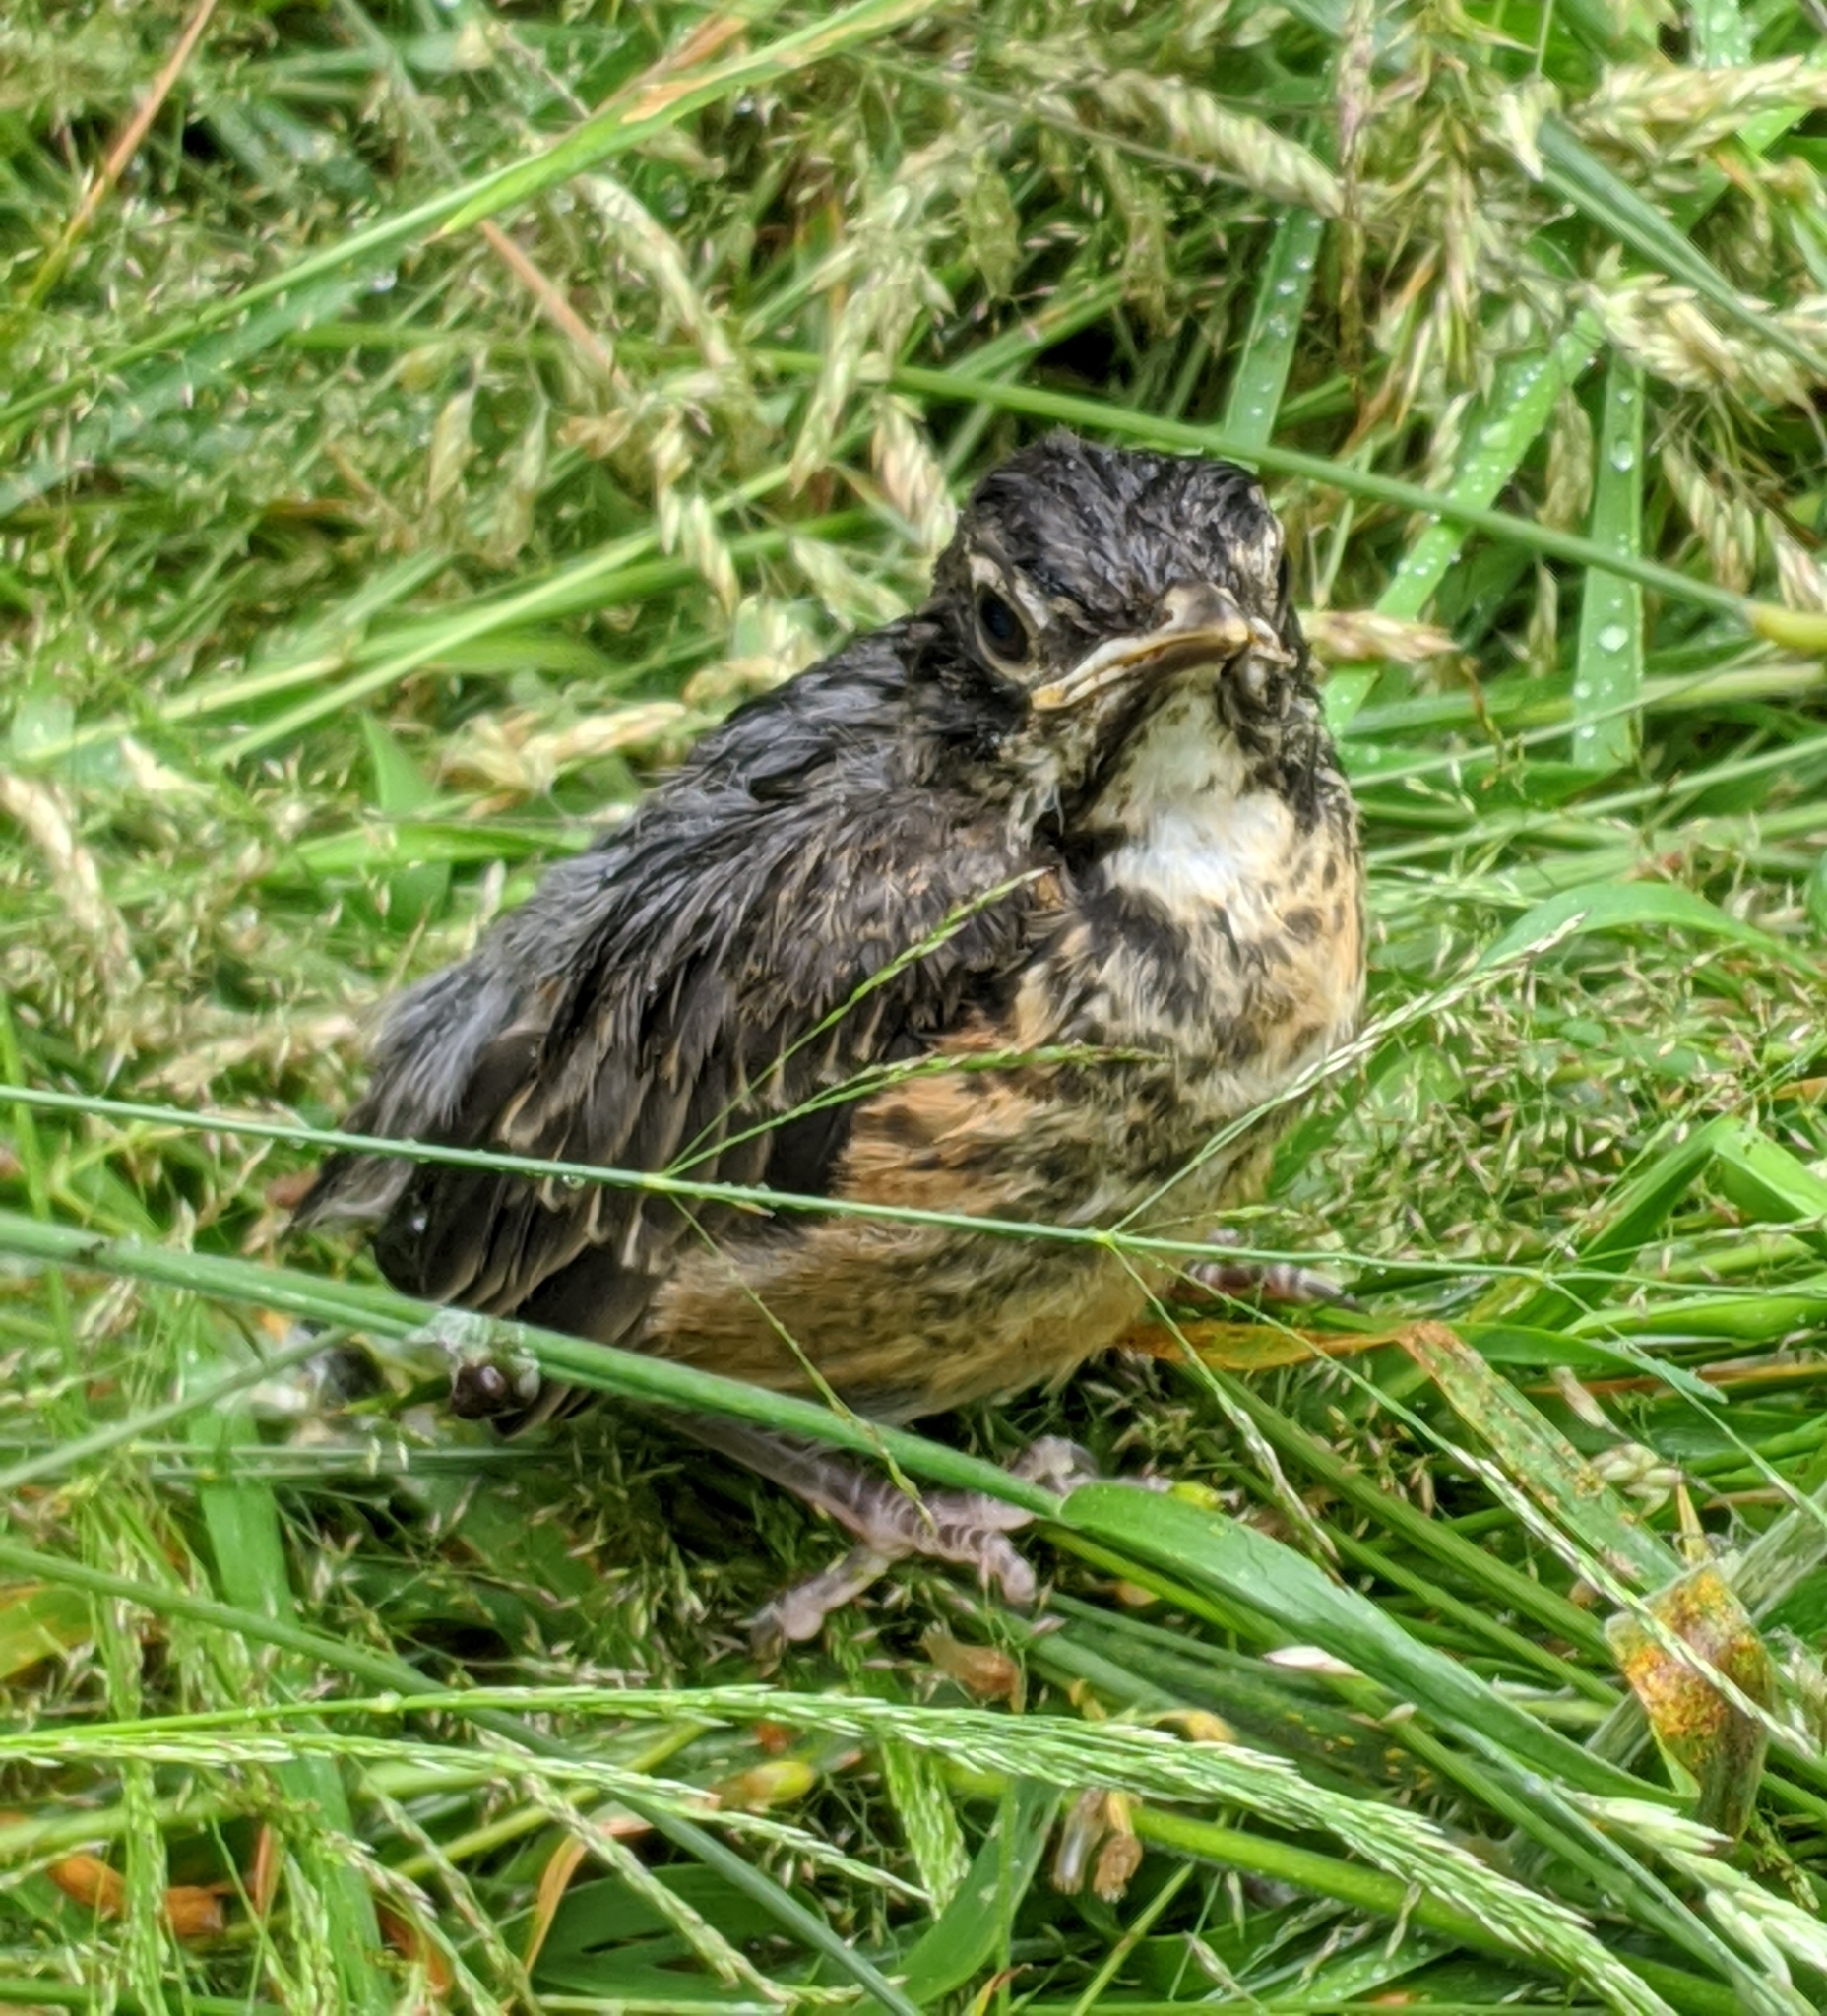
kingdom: Animalia
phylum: Chordata
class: Aves
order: Passeriformes
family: Turdidae
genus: Turdus
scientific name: Turdus migratorius
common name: American robin
